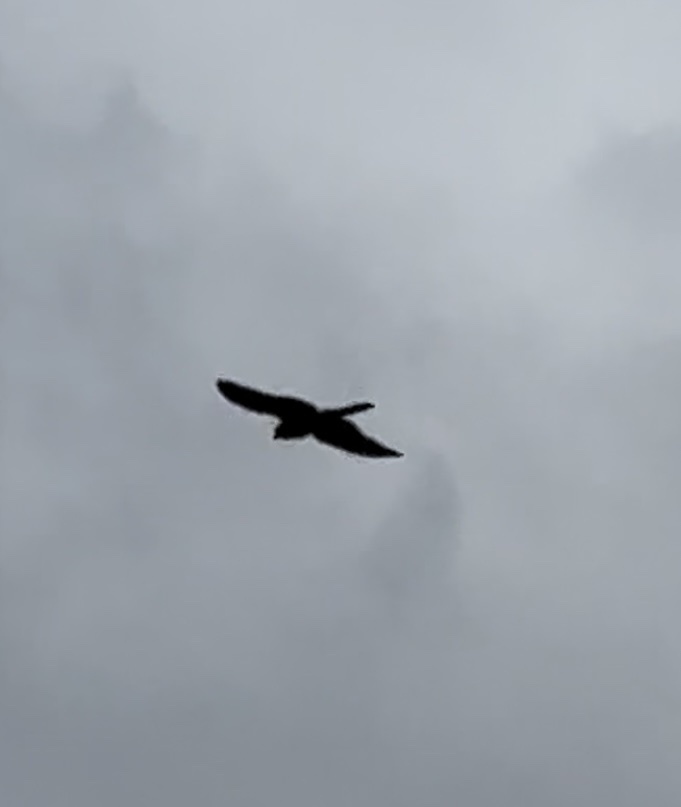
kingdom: Animalia
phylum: Chordata
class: Aves
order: Falconiformes
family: Falconidae
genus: Falco
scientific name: Falco tinnunculus
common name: Common kestrel
